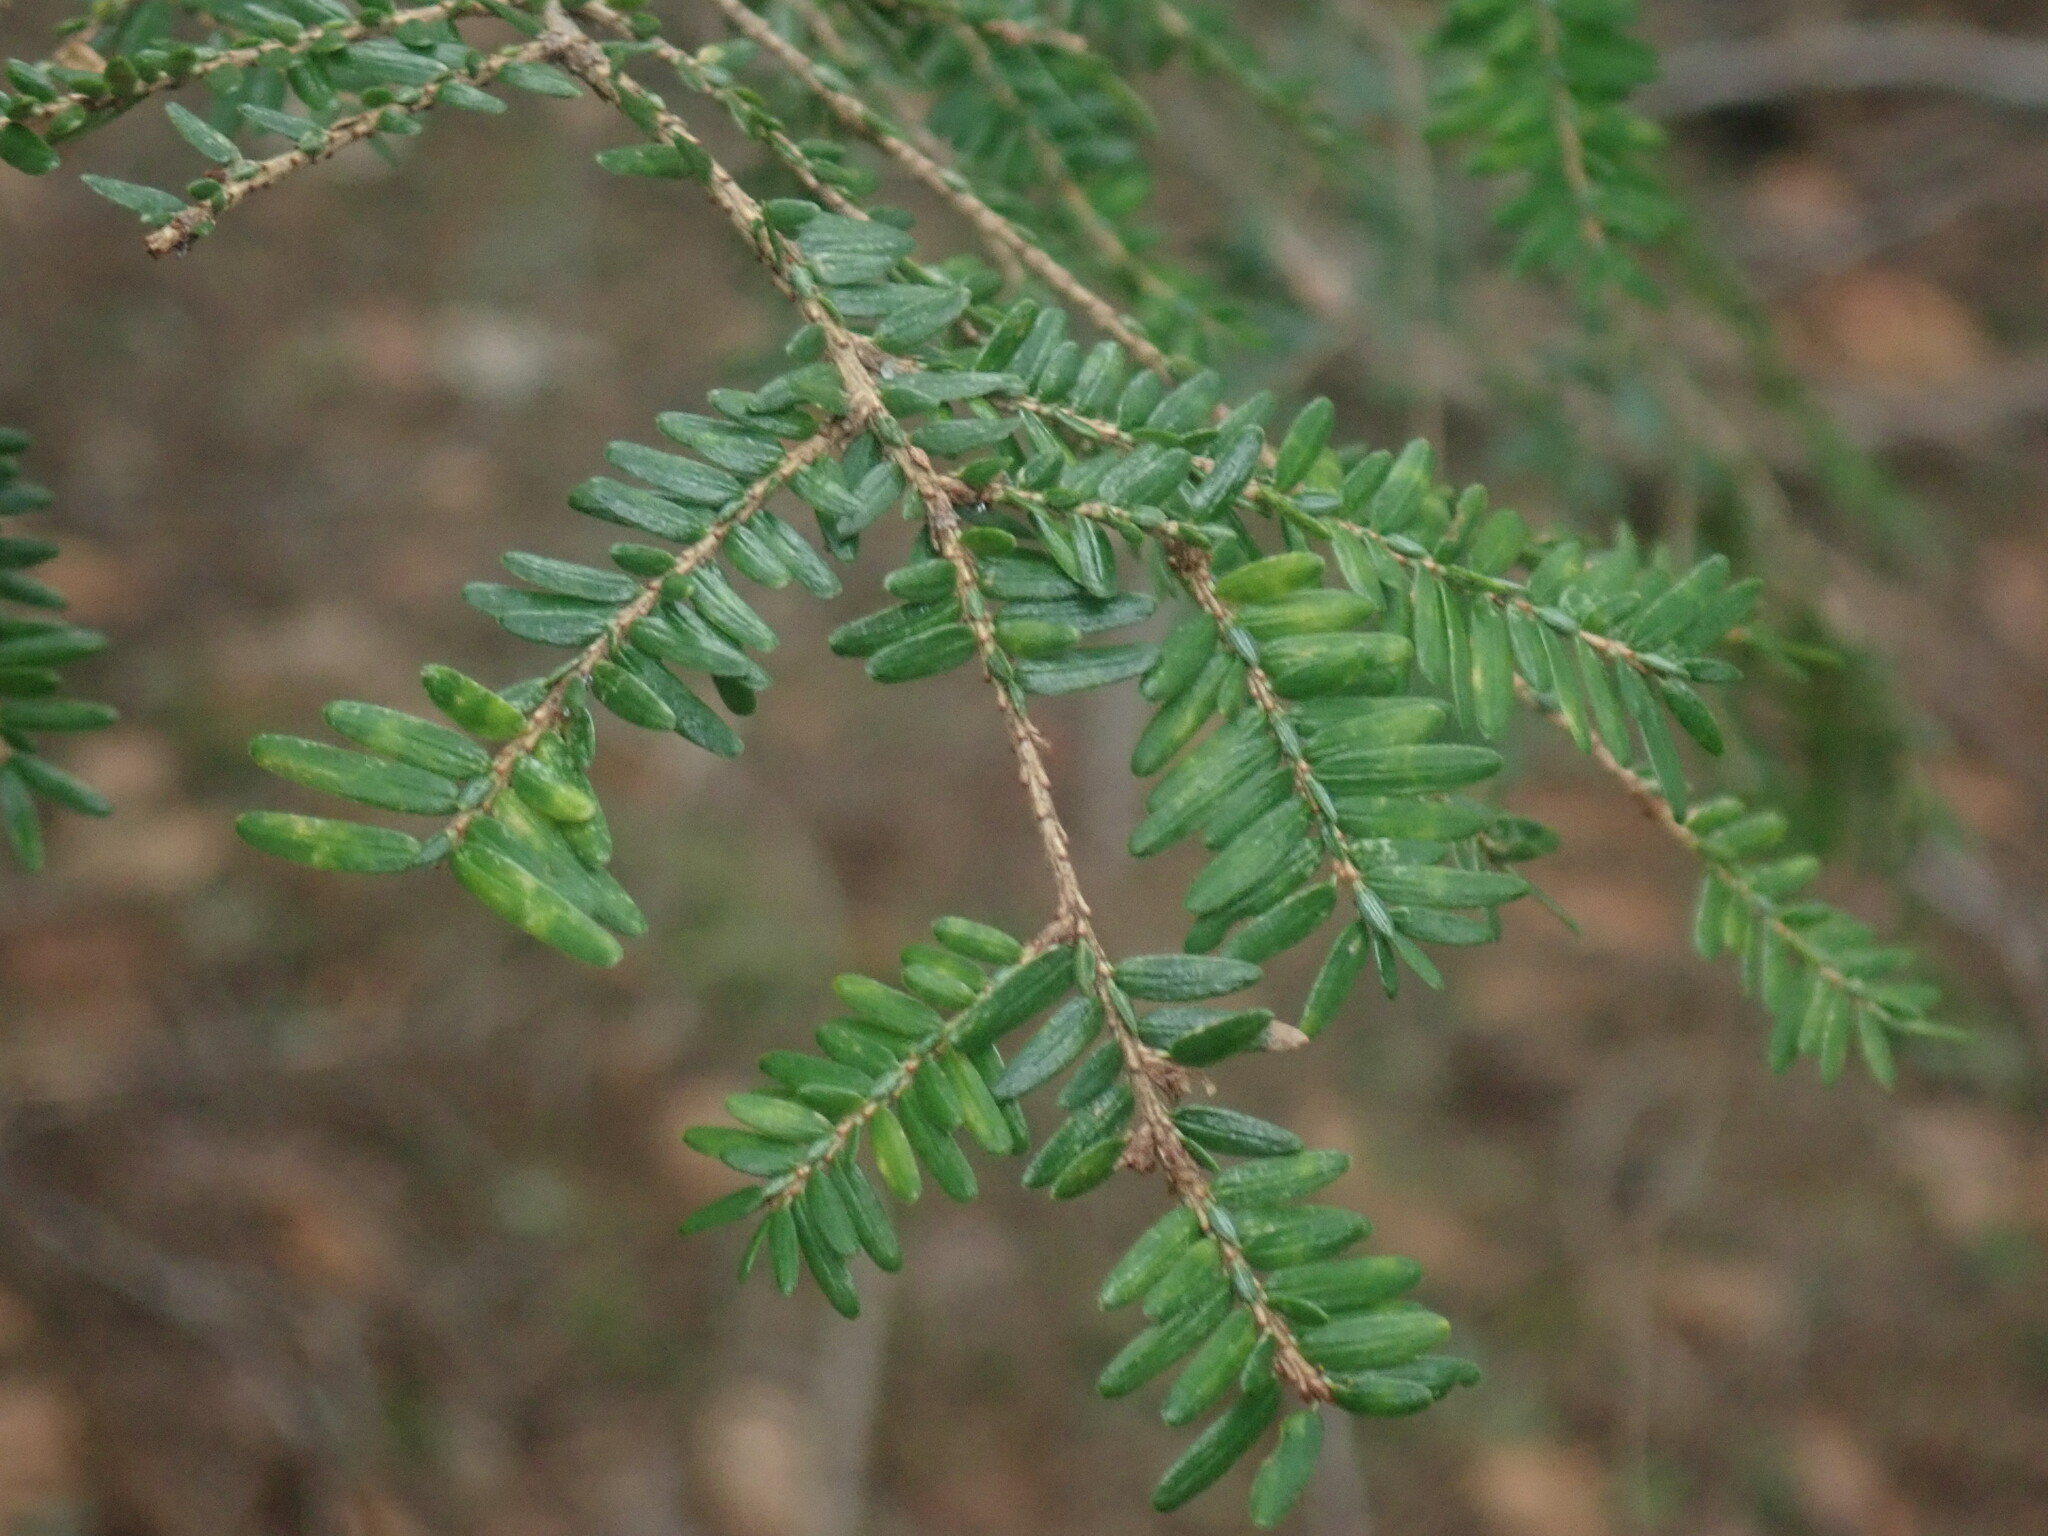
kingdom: Plantae
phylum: Tracheophyta
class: Pinopsida
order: Pinales
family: Pinaceae
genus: Tsuga
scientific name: Tsuga canadensis
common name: Eastern hemlock
